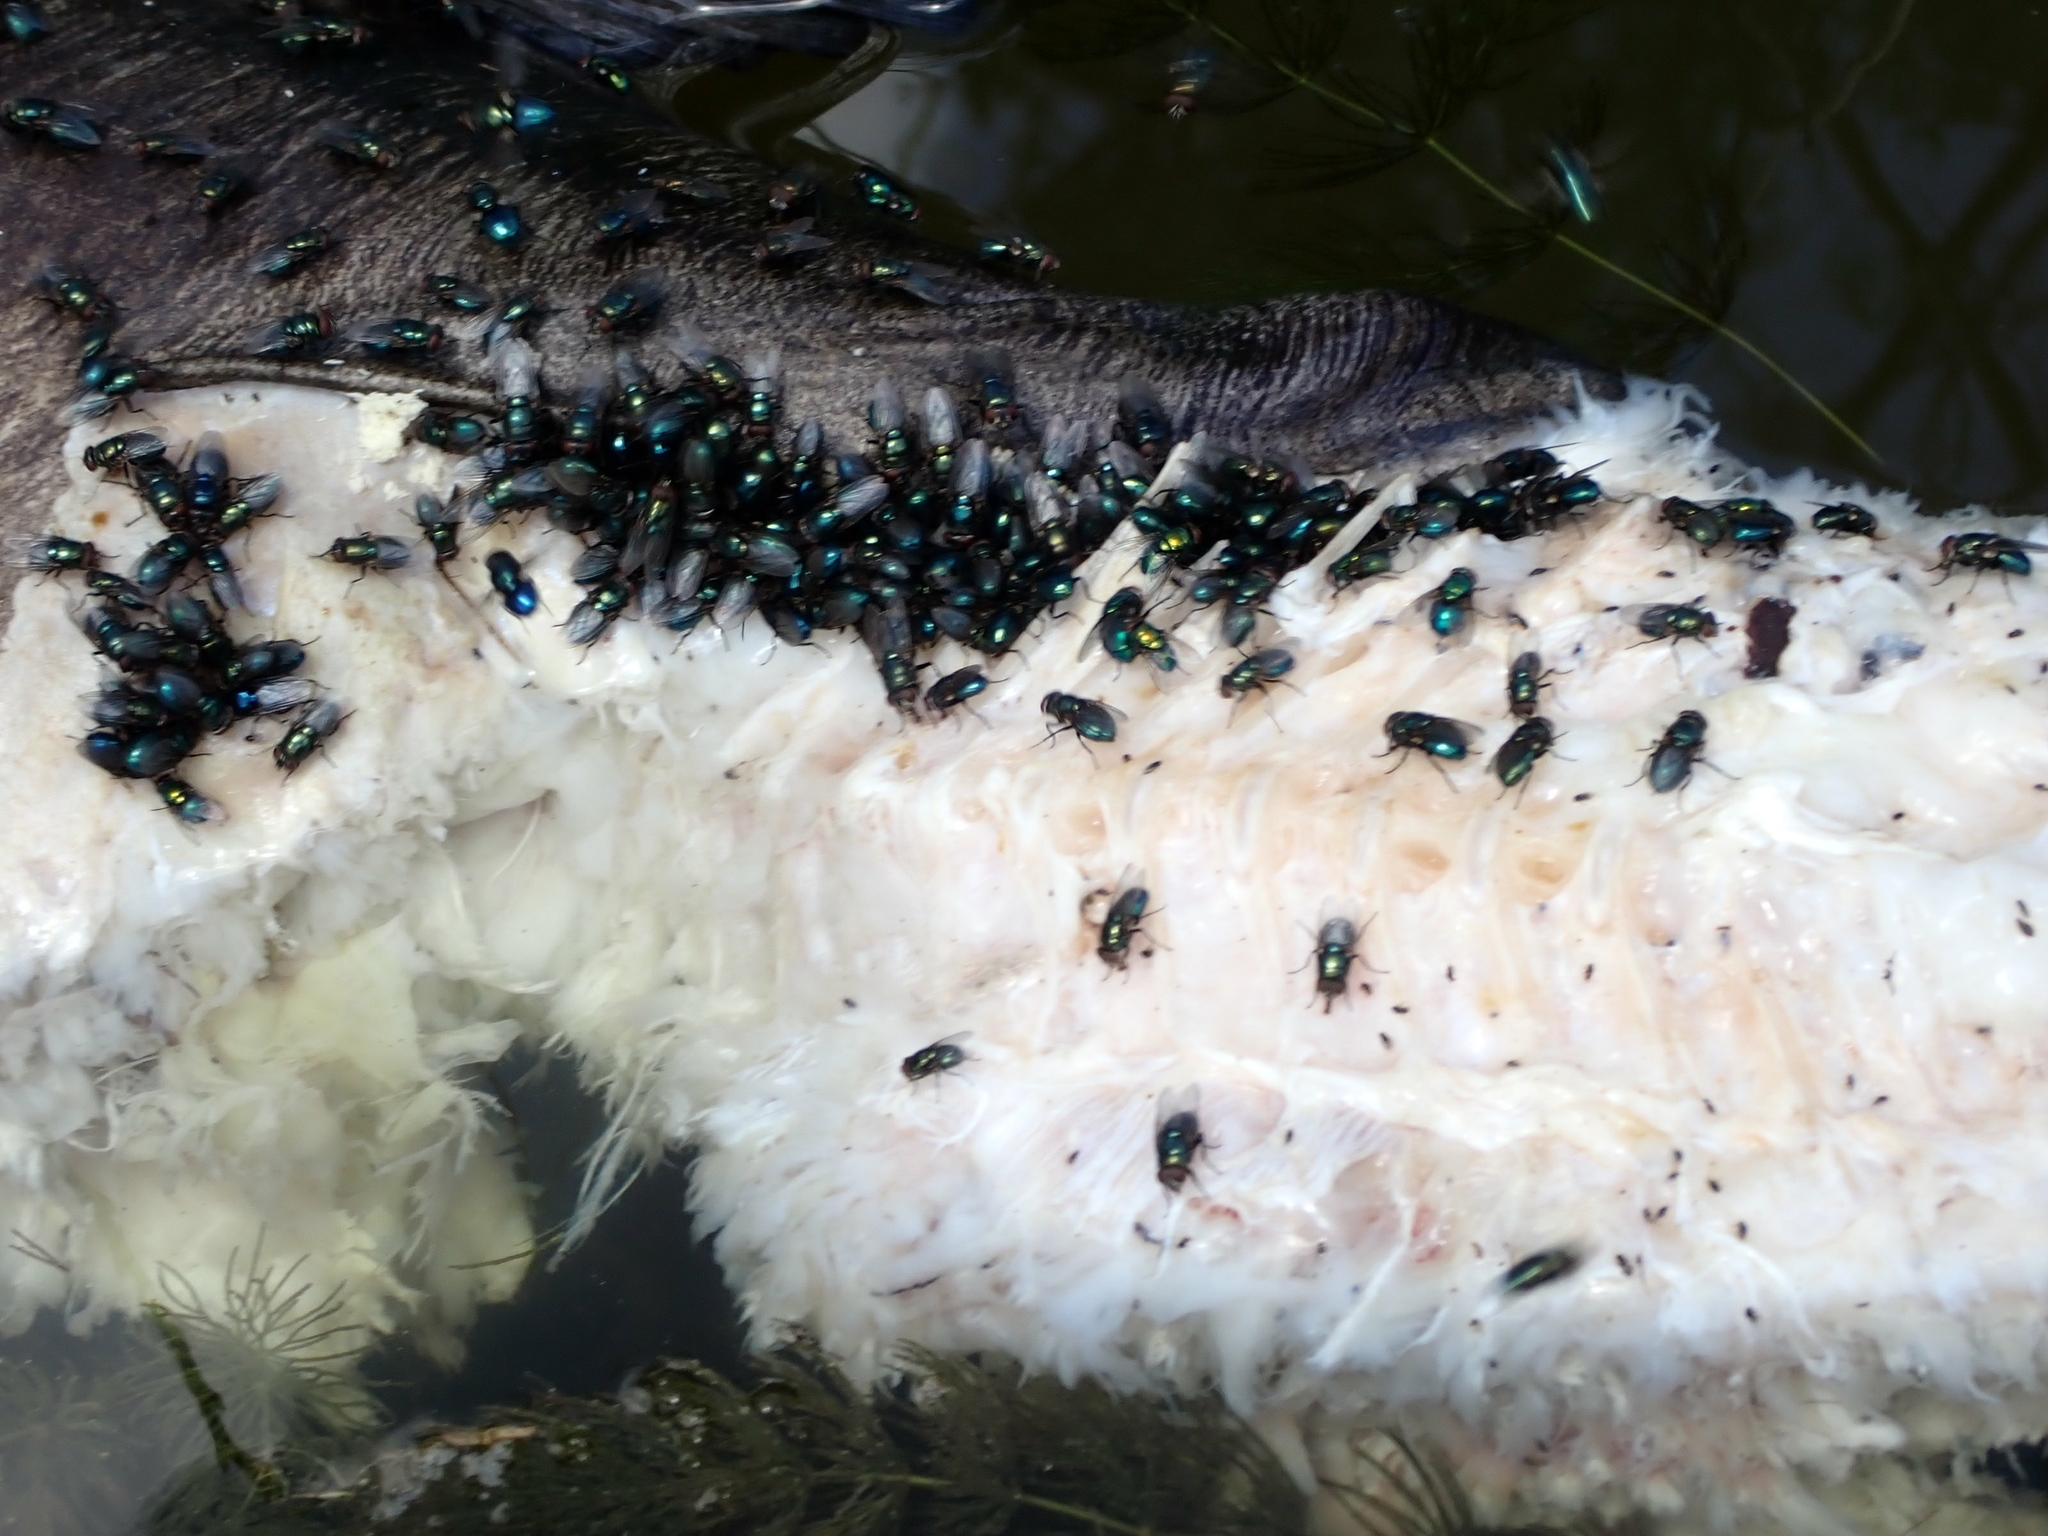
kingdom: Animalia
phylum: Arthropoda
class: Insecta
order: Diptera
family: Calliphoridae
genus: Phormia
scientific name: Phormia regina
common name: Black blow fly
